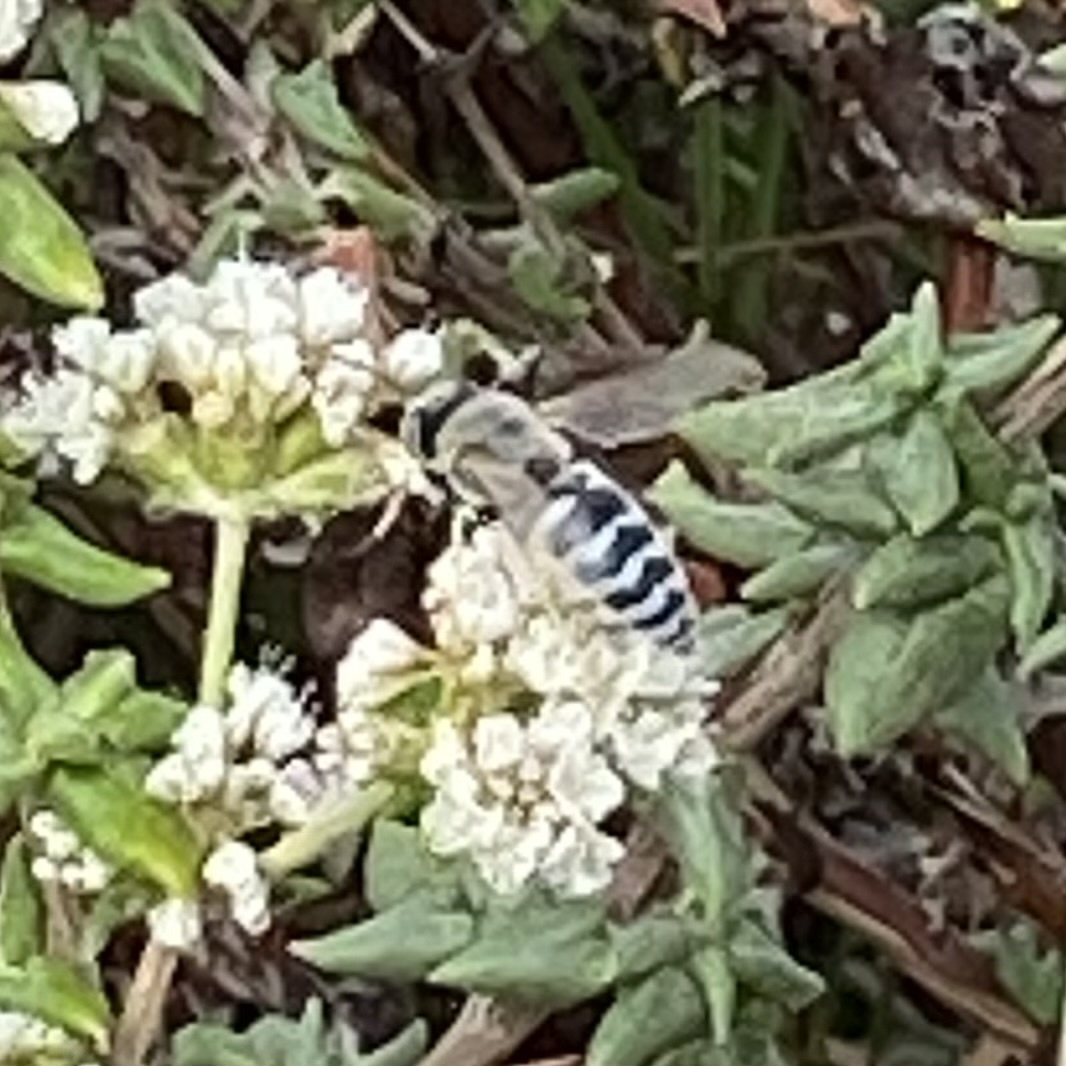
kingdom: Animalia
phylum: Arthropoda
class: Insecta
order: Hymenoptera
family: Crabronidae
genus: Bembix
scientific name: Bembix americana
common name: American sand wasp
